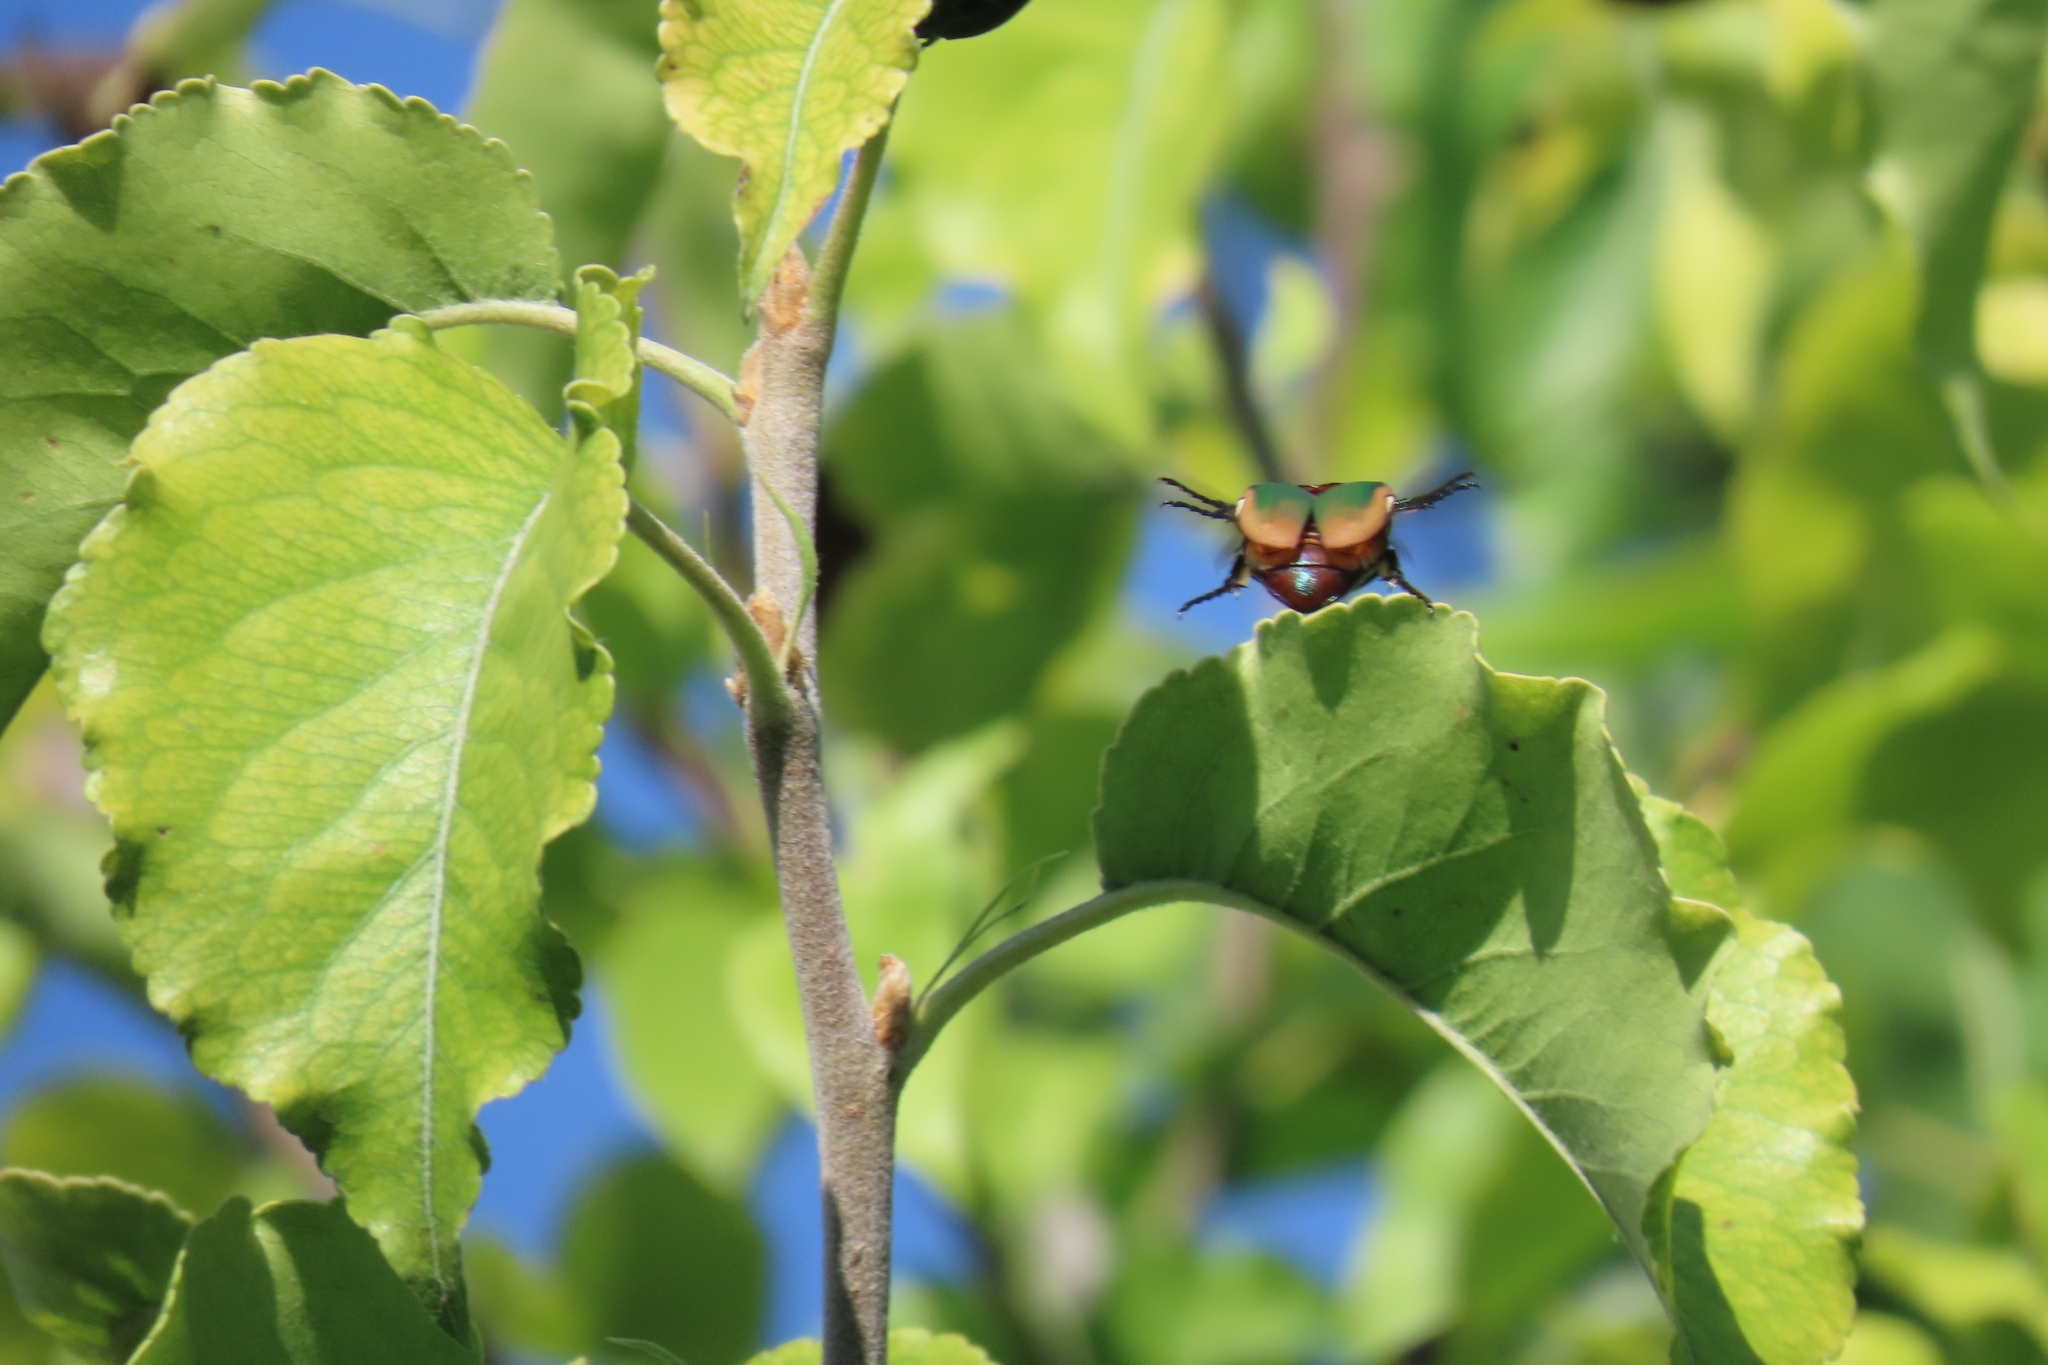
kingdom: Animalia
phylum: Arthropoda
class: Insecta
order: Coleoptera
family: Scarabaeidae
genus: Cotinis
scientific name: Cotinis mutabilis
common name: Figeater beetle
